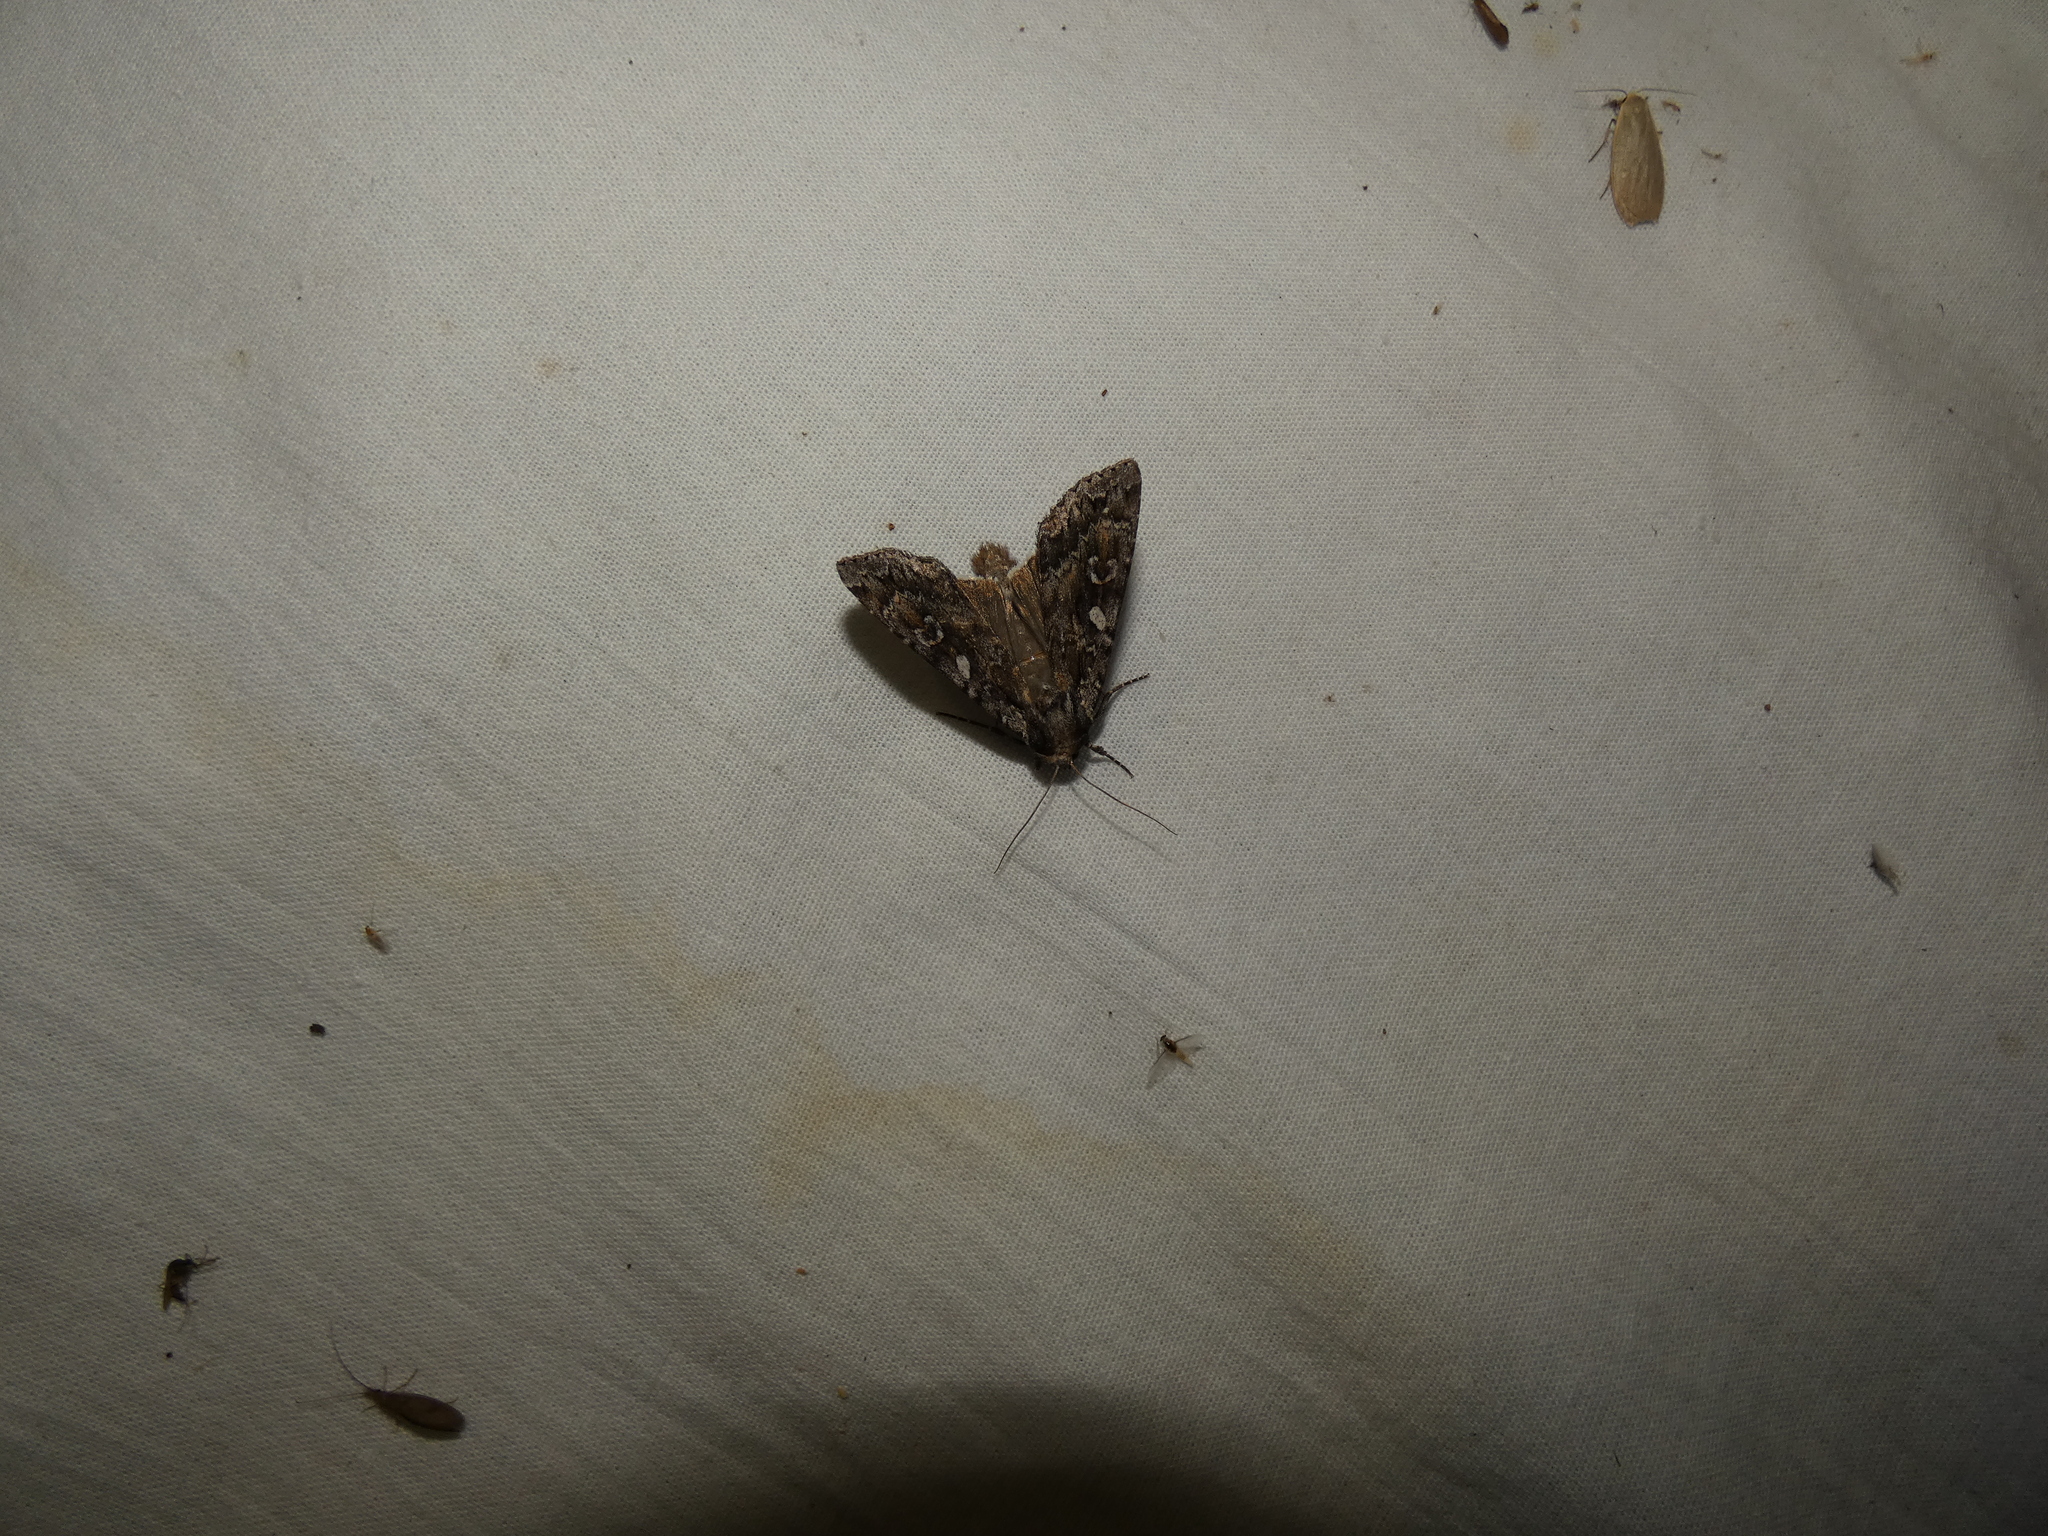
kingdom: Animalia
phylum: Arthropoda
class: Insecta
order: Lepidoptera
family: Noctuidae
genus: Eurois
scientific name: Eurois occulta
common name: Great brocade
